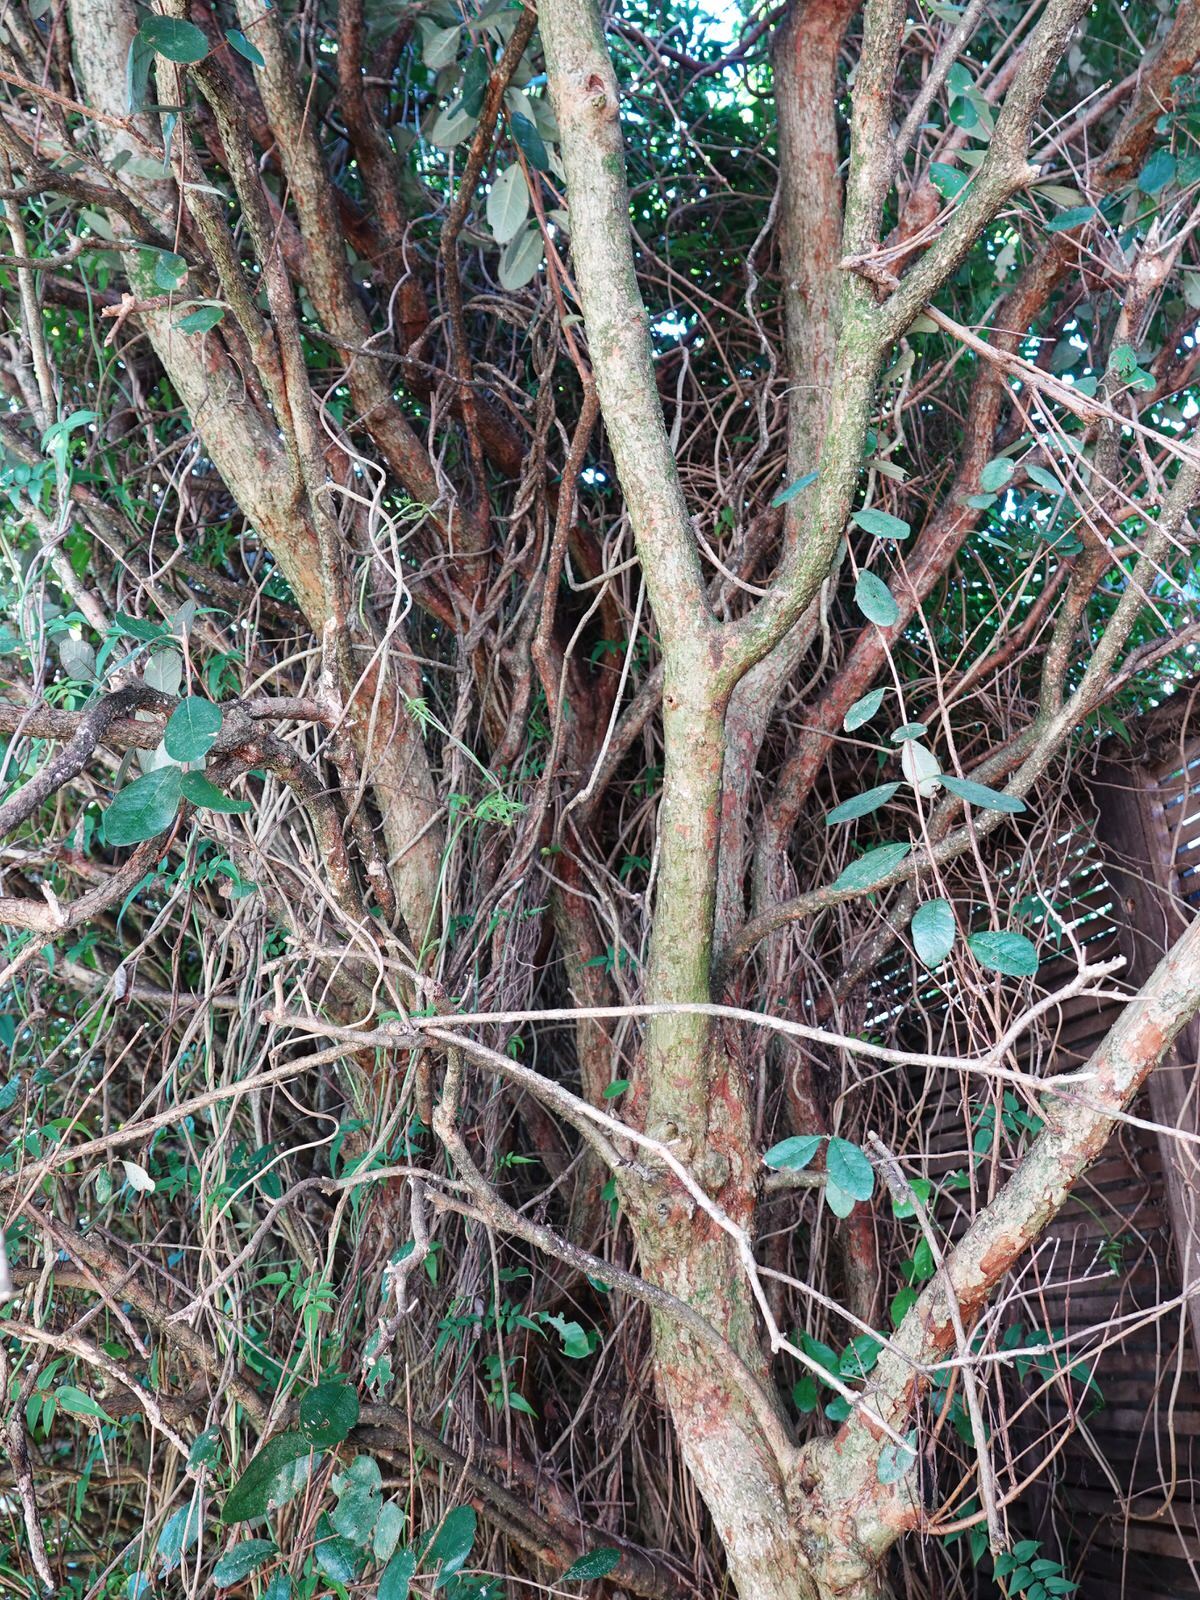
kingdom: Plantae
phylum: Tracheophyta
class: Magnoliopsida
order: Lamiales
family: Oleaceae
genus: Jasminum
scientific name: Jasminum polyanthum
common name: Pink jasmine
